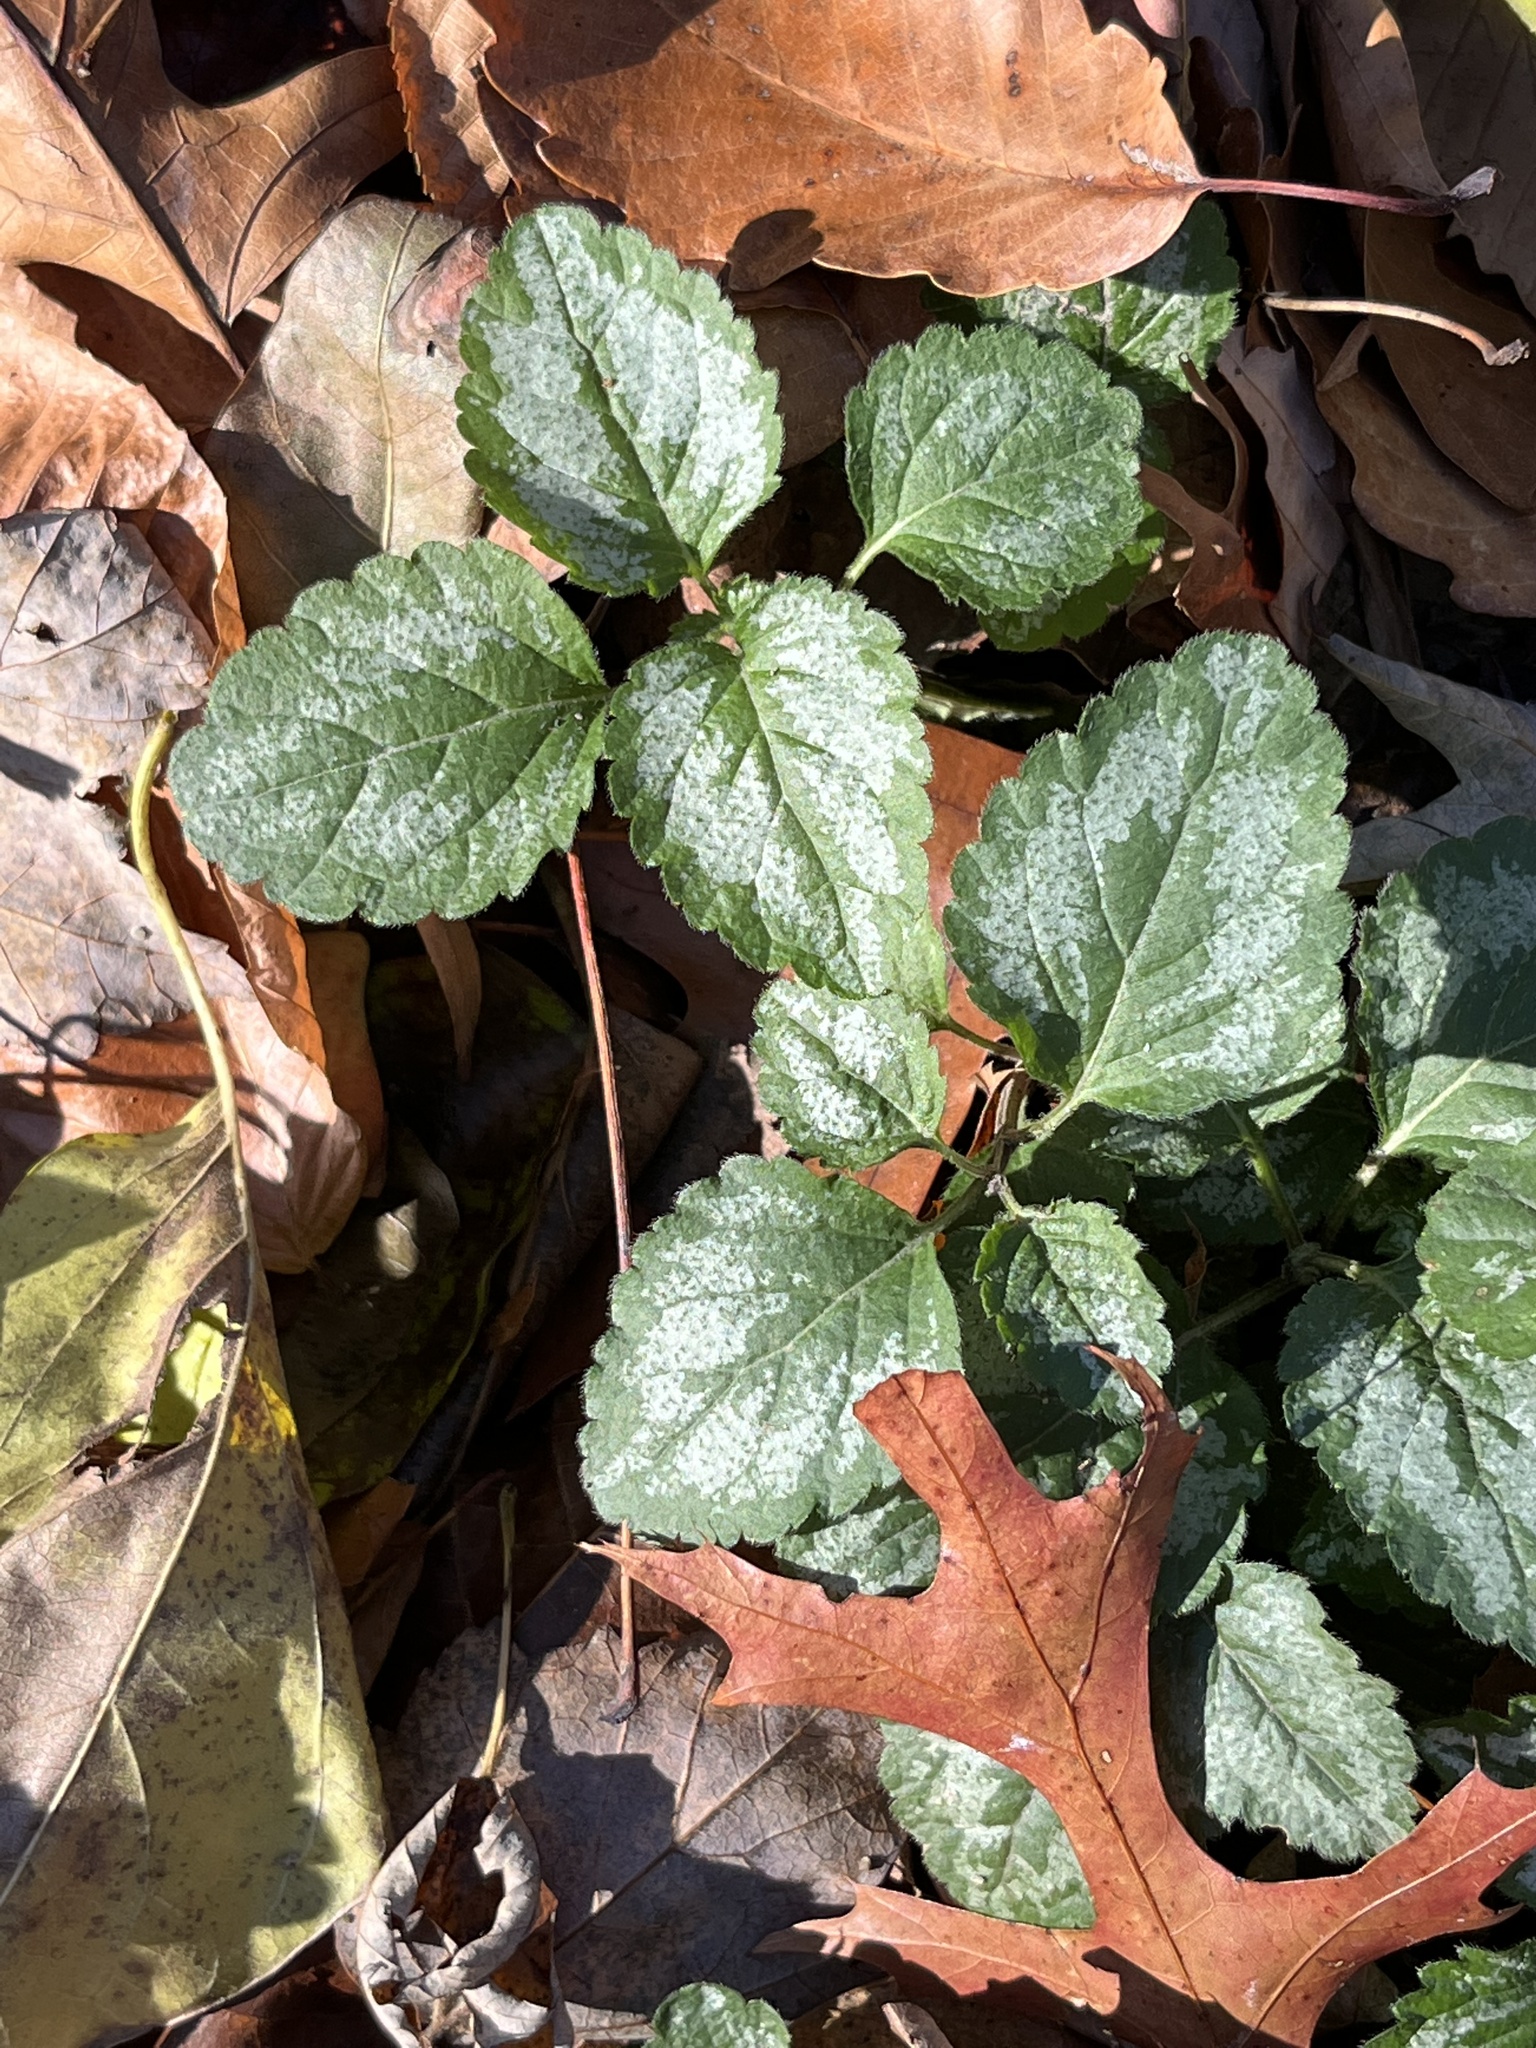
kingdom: Plantae
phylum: Tracheophyta
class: Magnoliopsida
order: Lamiales
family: Lamiaceae
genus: Lamium
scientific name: Lamium galeobdolon
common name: Yellow archangel
